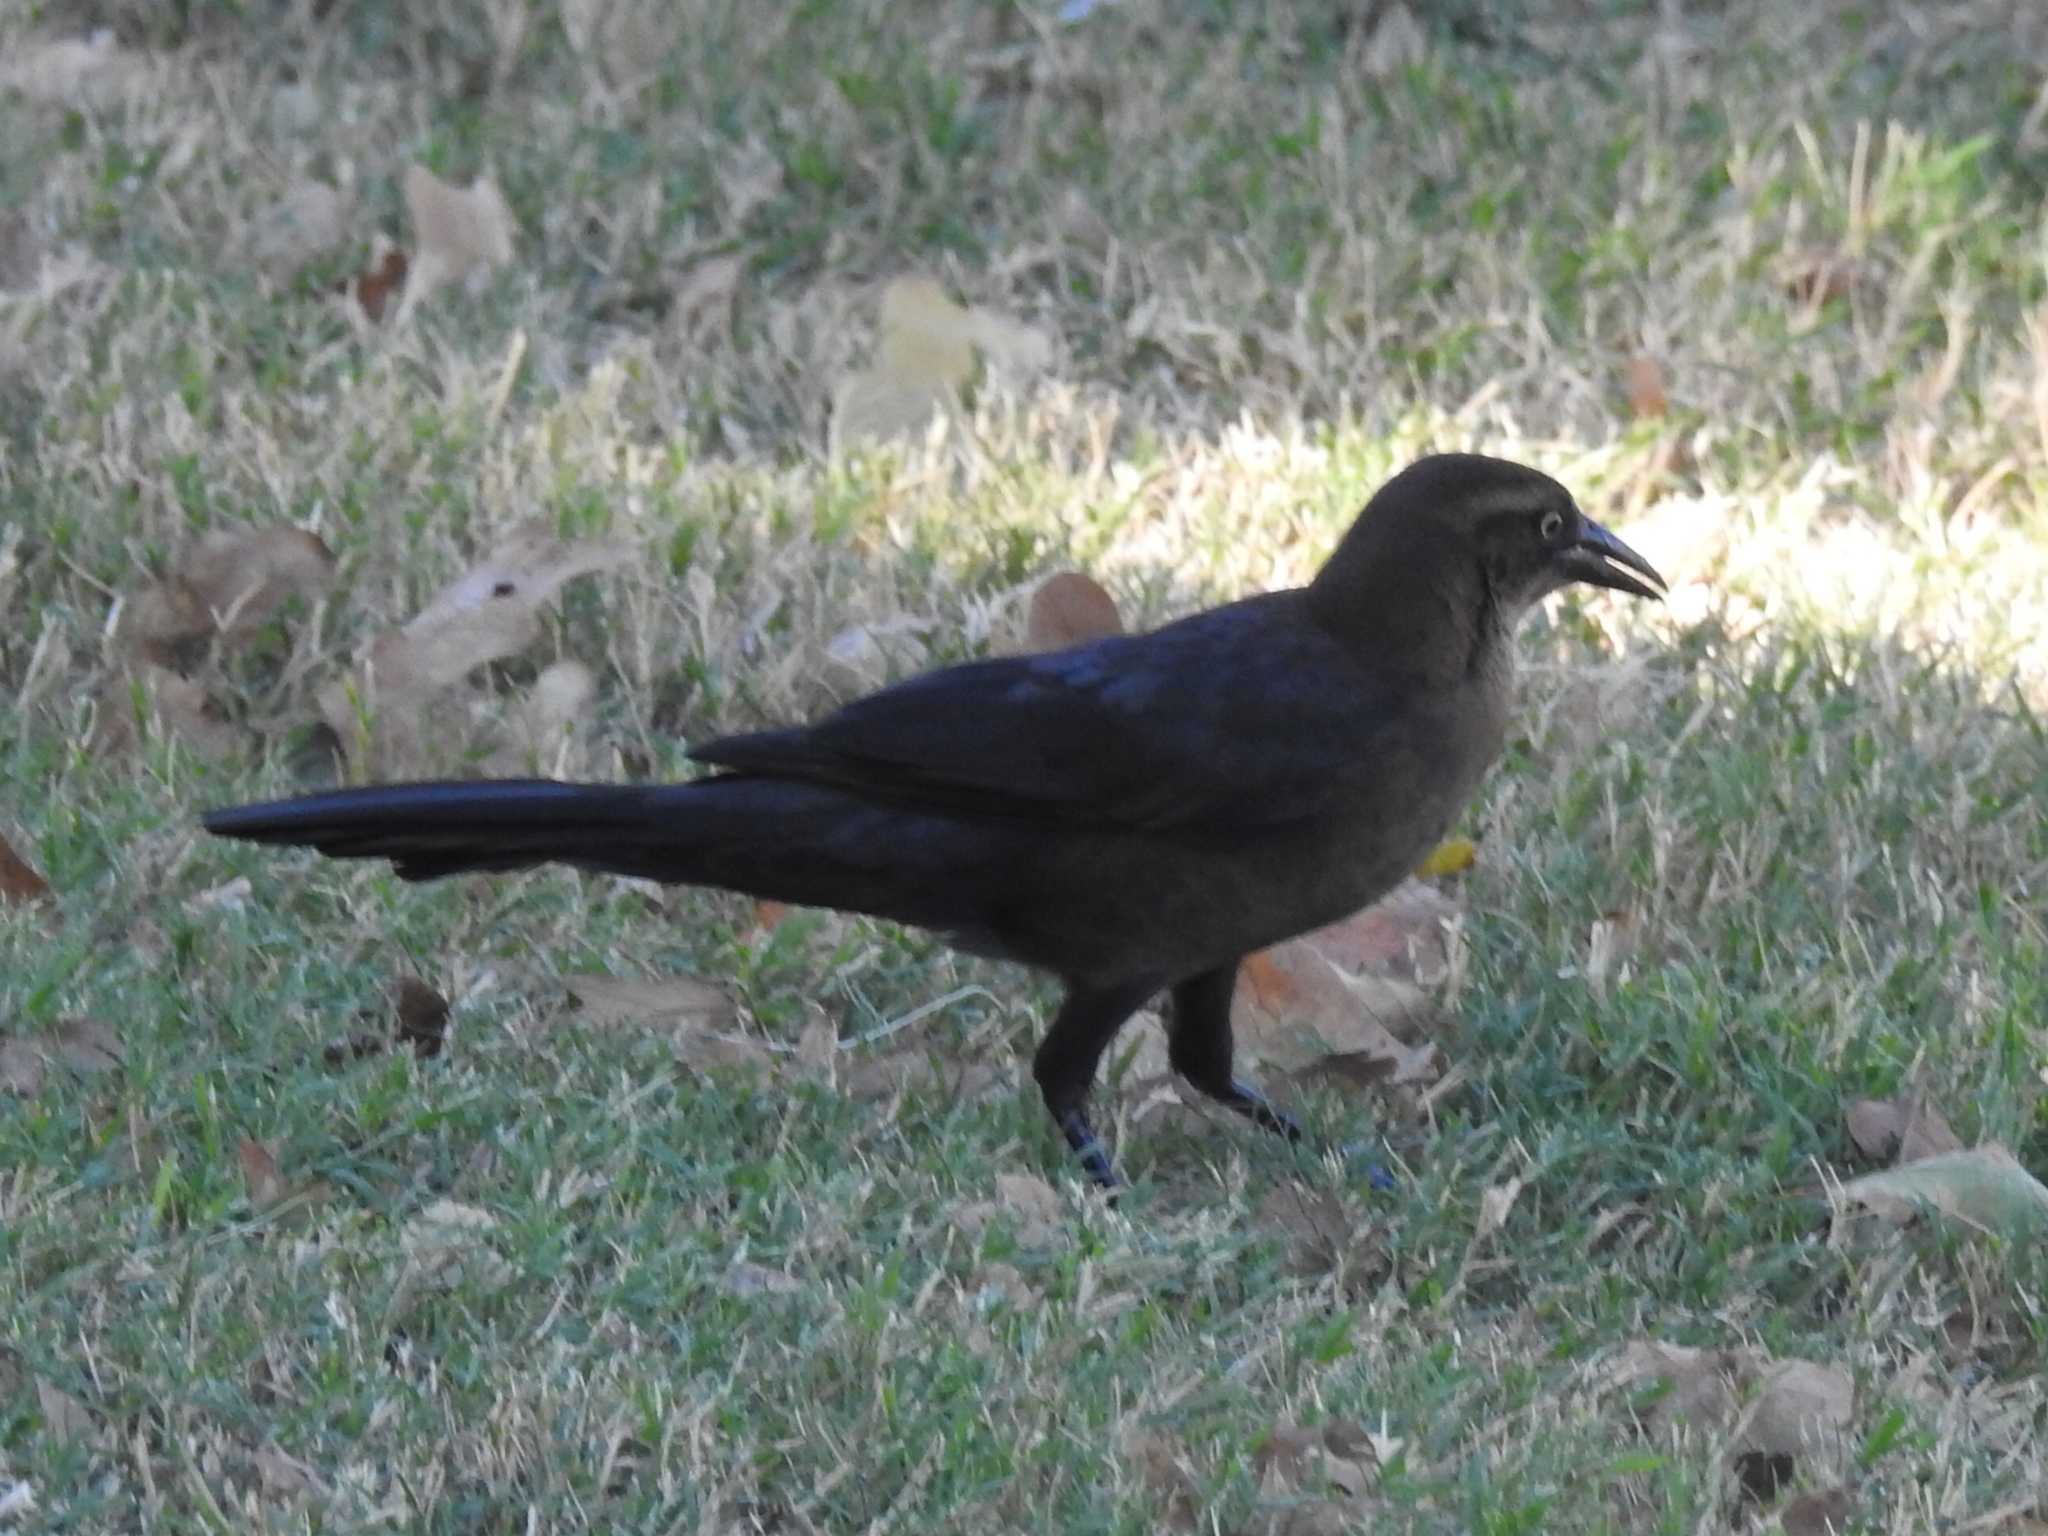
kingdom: Animalia
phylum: Chordata
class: Aves
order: Passeriformes
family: Icteridae
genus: Quiscalus
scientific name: Quiscalus mexicanus
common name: Great-tailed grackle
